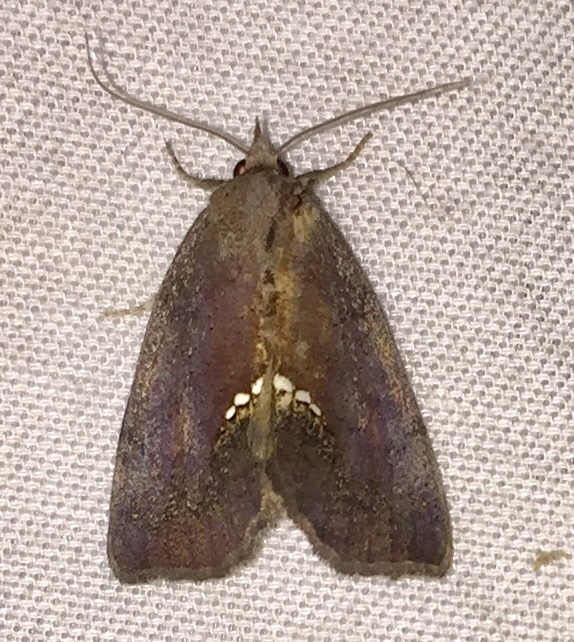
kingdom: Animalia
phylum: Arthropoda
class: Insecta
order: Lepidoptera
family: Erebidae
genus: Hypsoropha
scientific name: Hypsoropha hormos
